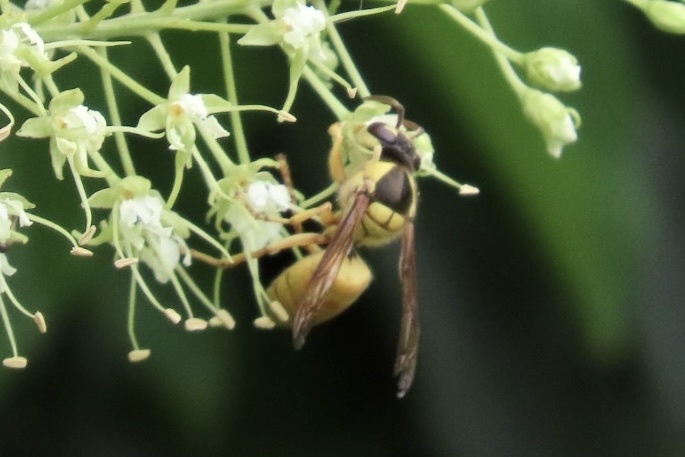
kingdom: Animalia
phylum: Arthropoda
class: Insecta
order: Hymenoptera
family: Vespidae
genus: Vespa
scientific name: Vespa bicolor
